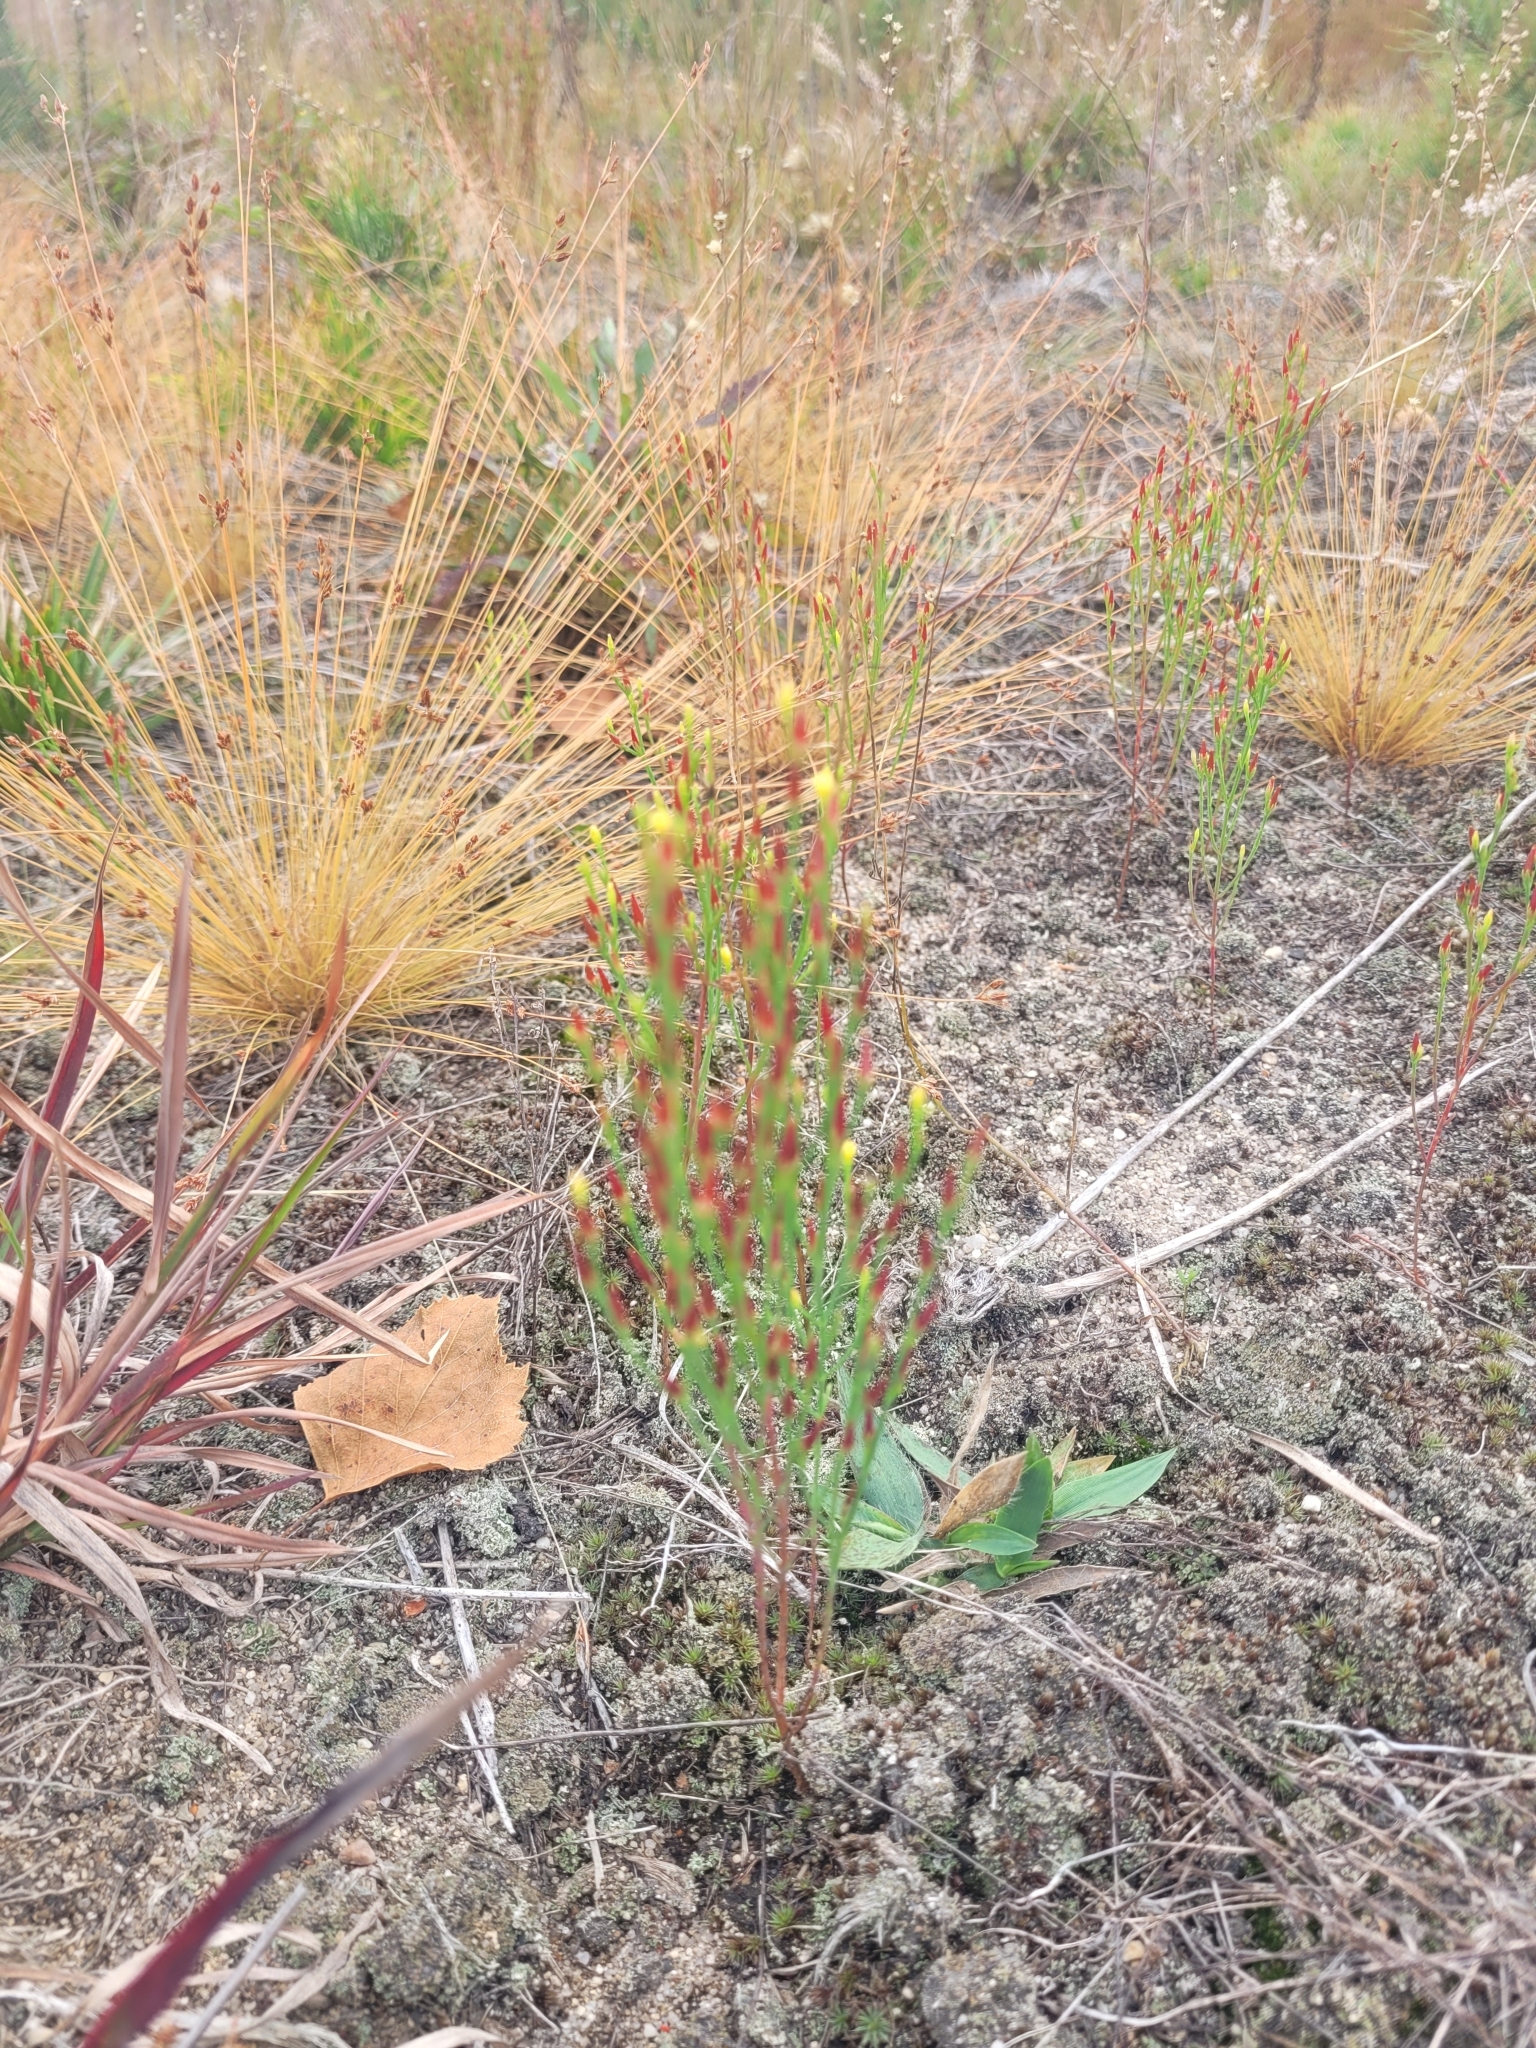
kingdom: Plantae
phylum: Tracheophyta
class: Magnoliopsida
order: Malpighiales
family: Hypericaceae
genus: Hypericum
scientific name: Hypericum gentianoides
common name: Gentian-leaved st. john's-wort
